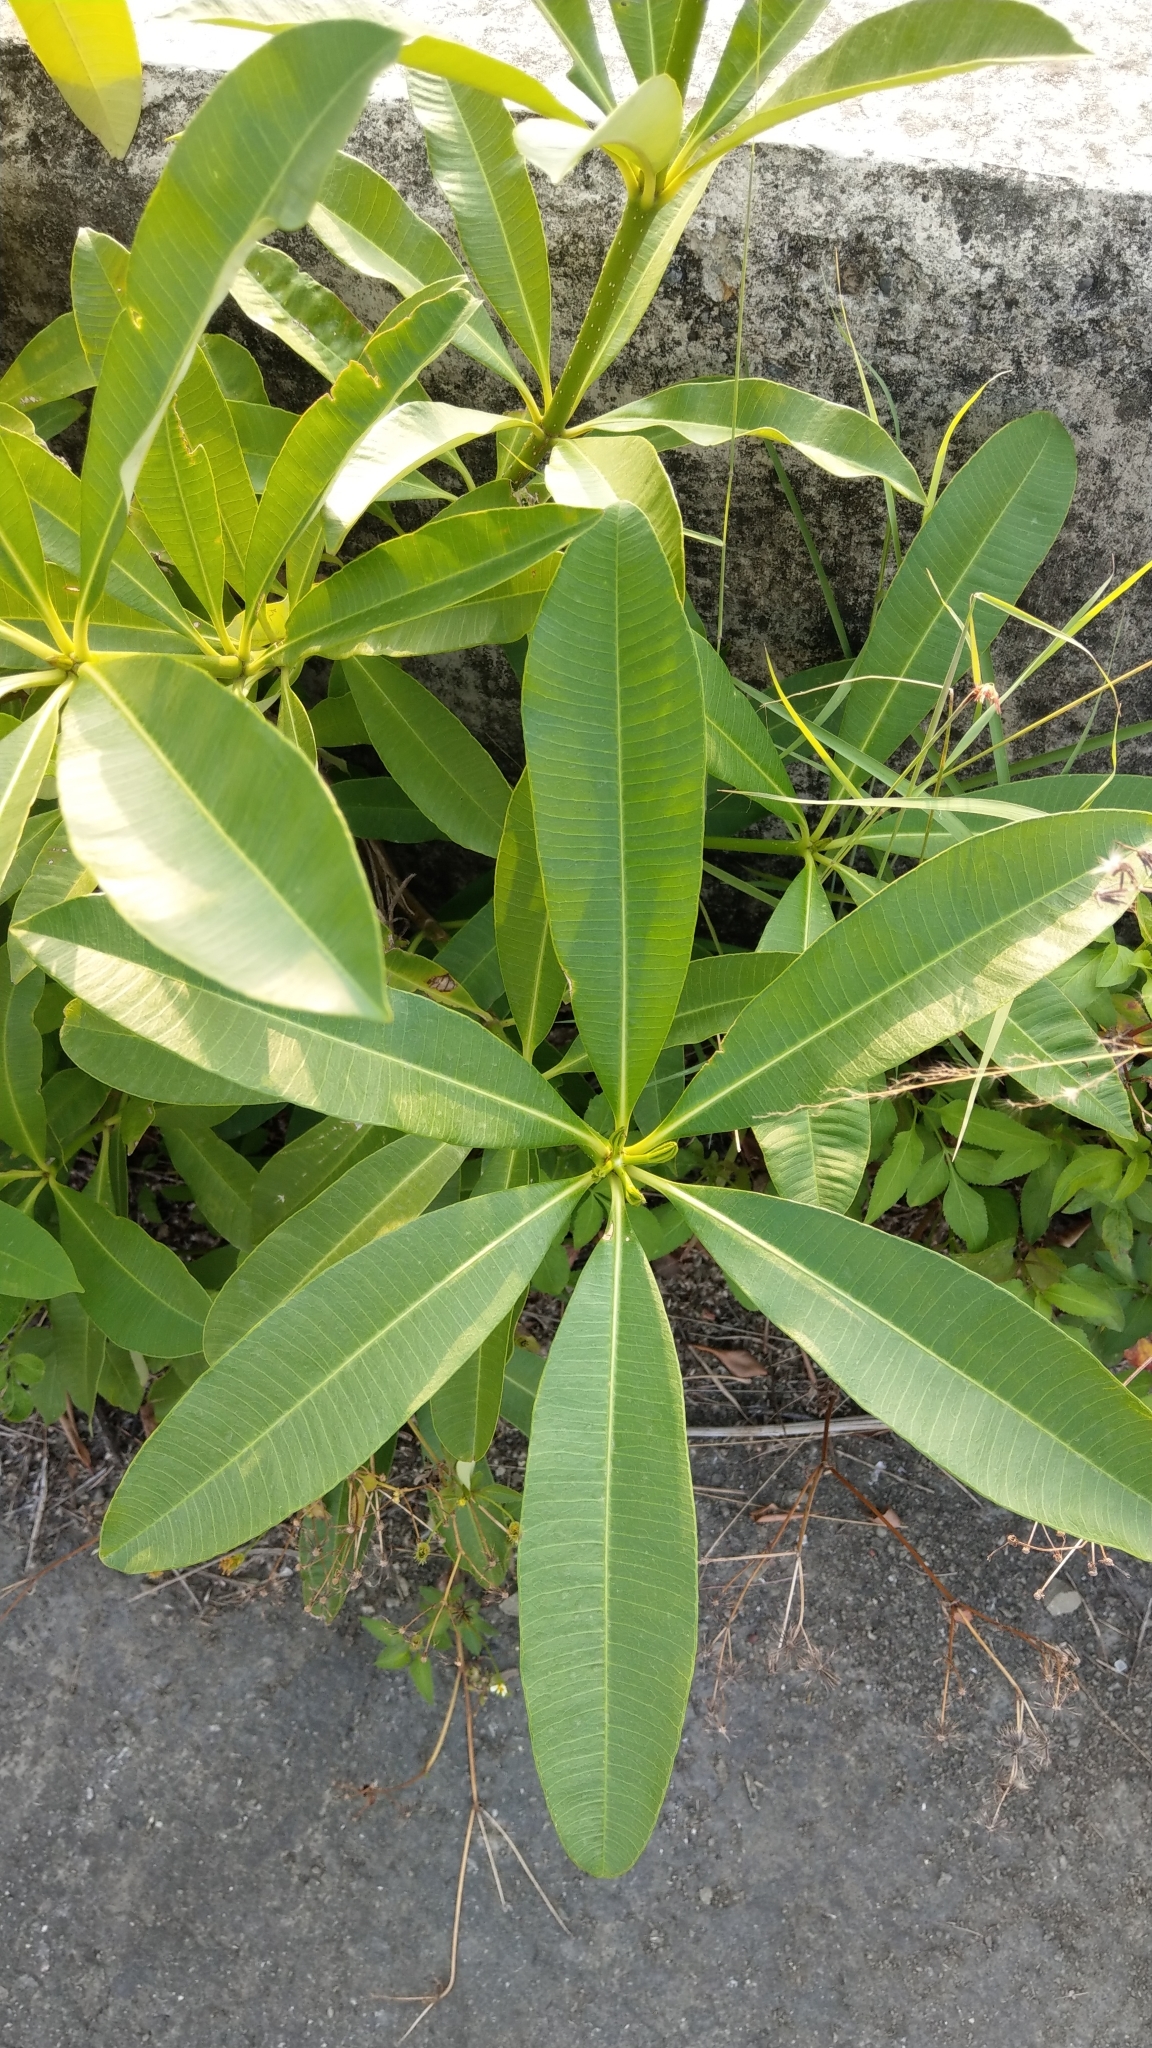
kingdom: Plantae
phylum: Tracheophyta
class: Magnoliopsida
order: Gentianales
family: Apocynaceae
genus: Alstonia
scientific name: Alstonia scholaris
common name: White cheesewood
